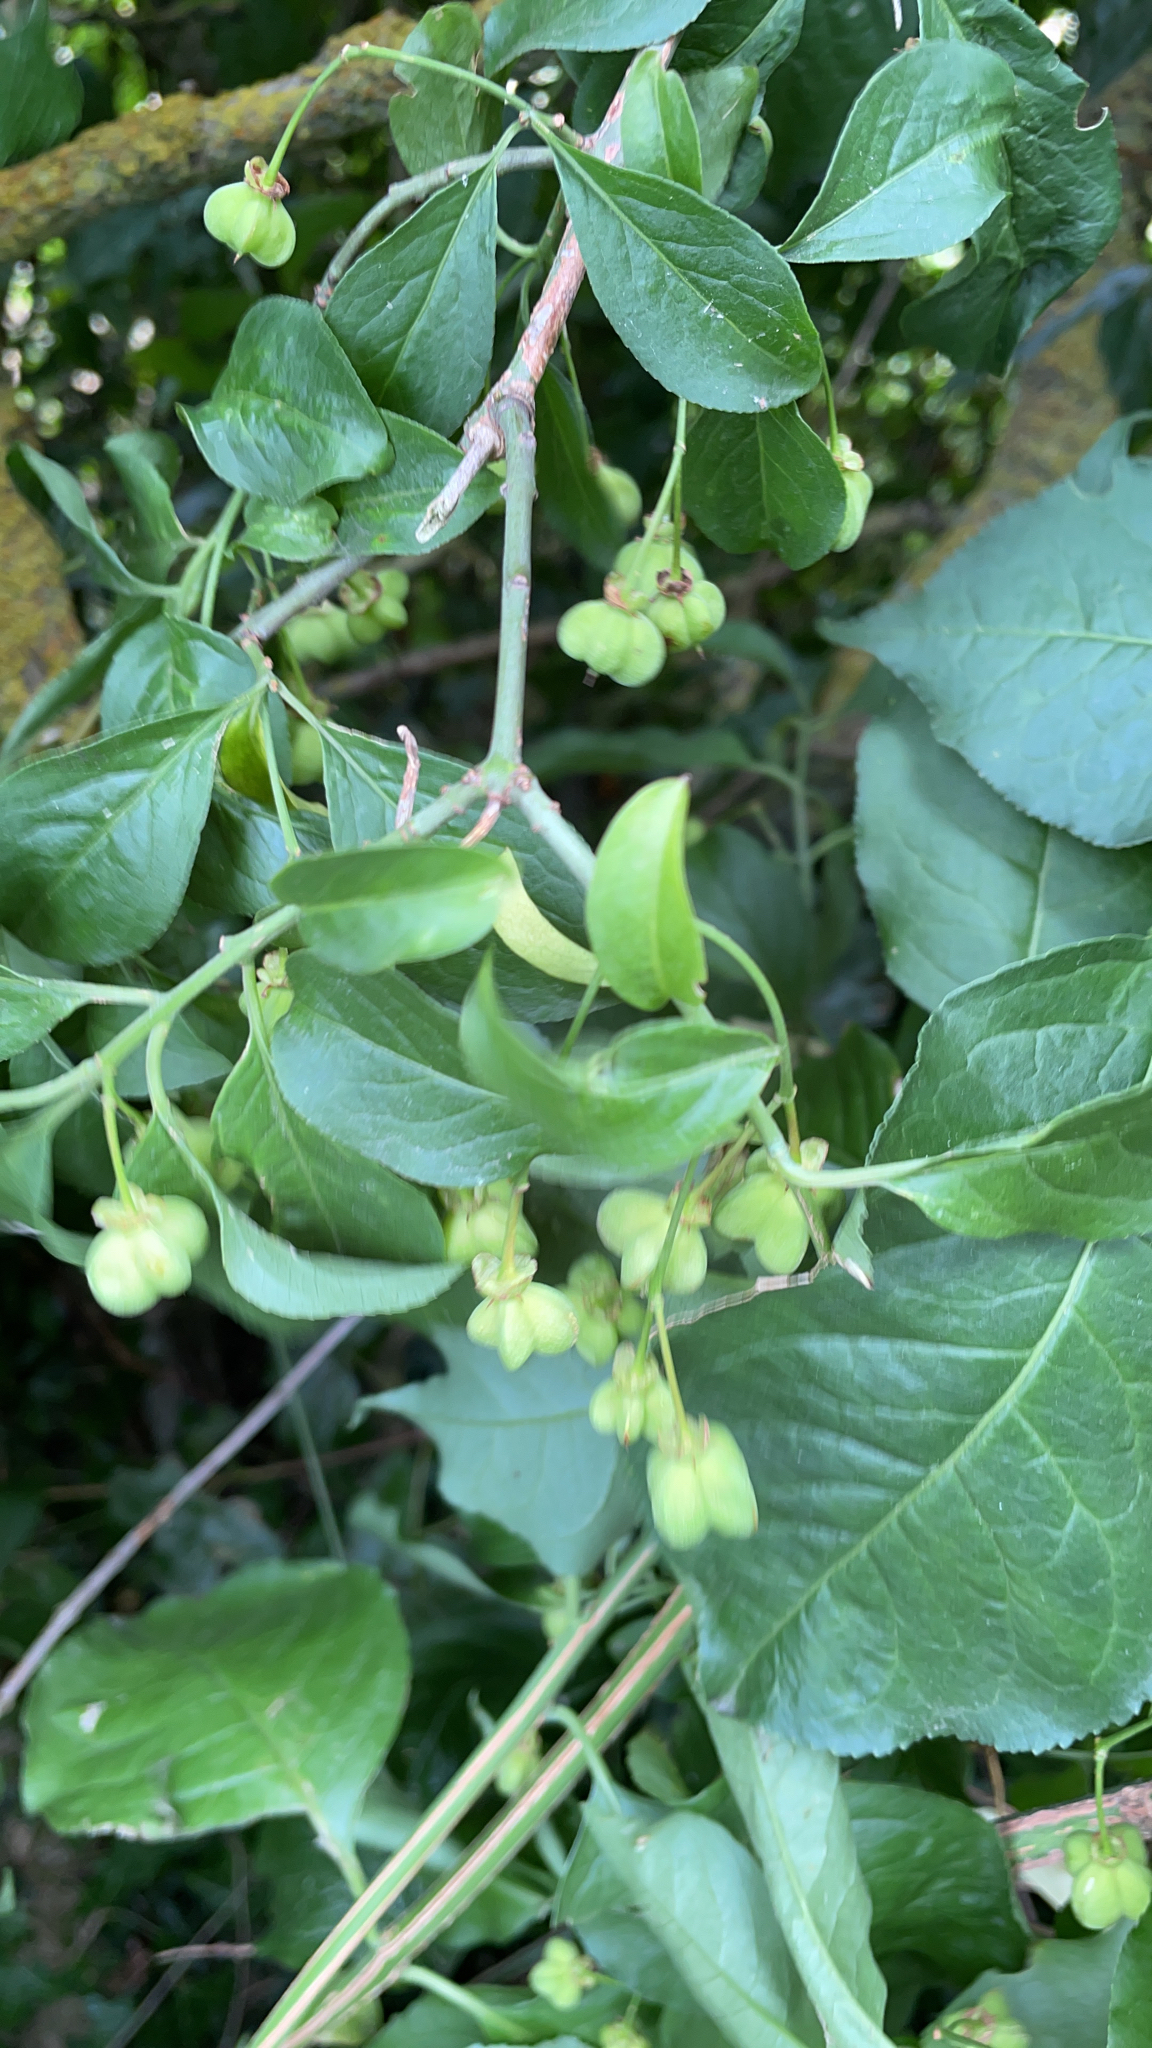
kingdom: Plantae
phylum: Tracheophyta
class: Magnoliopsida
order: Celastrales
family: Celastraceae
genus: Euonymus
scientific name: Euonymus europaeus
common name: Spindle
